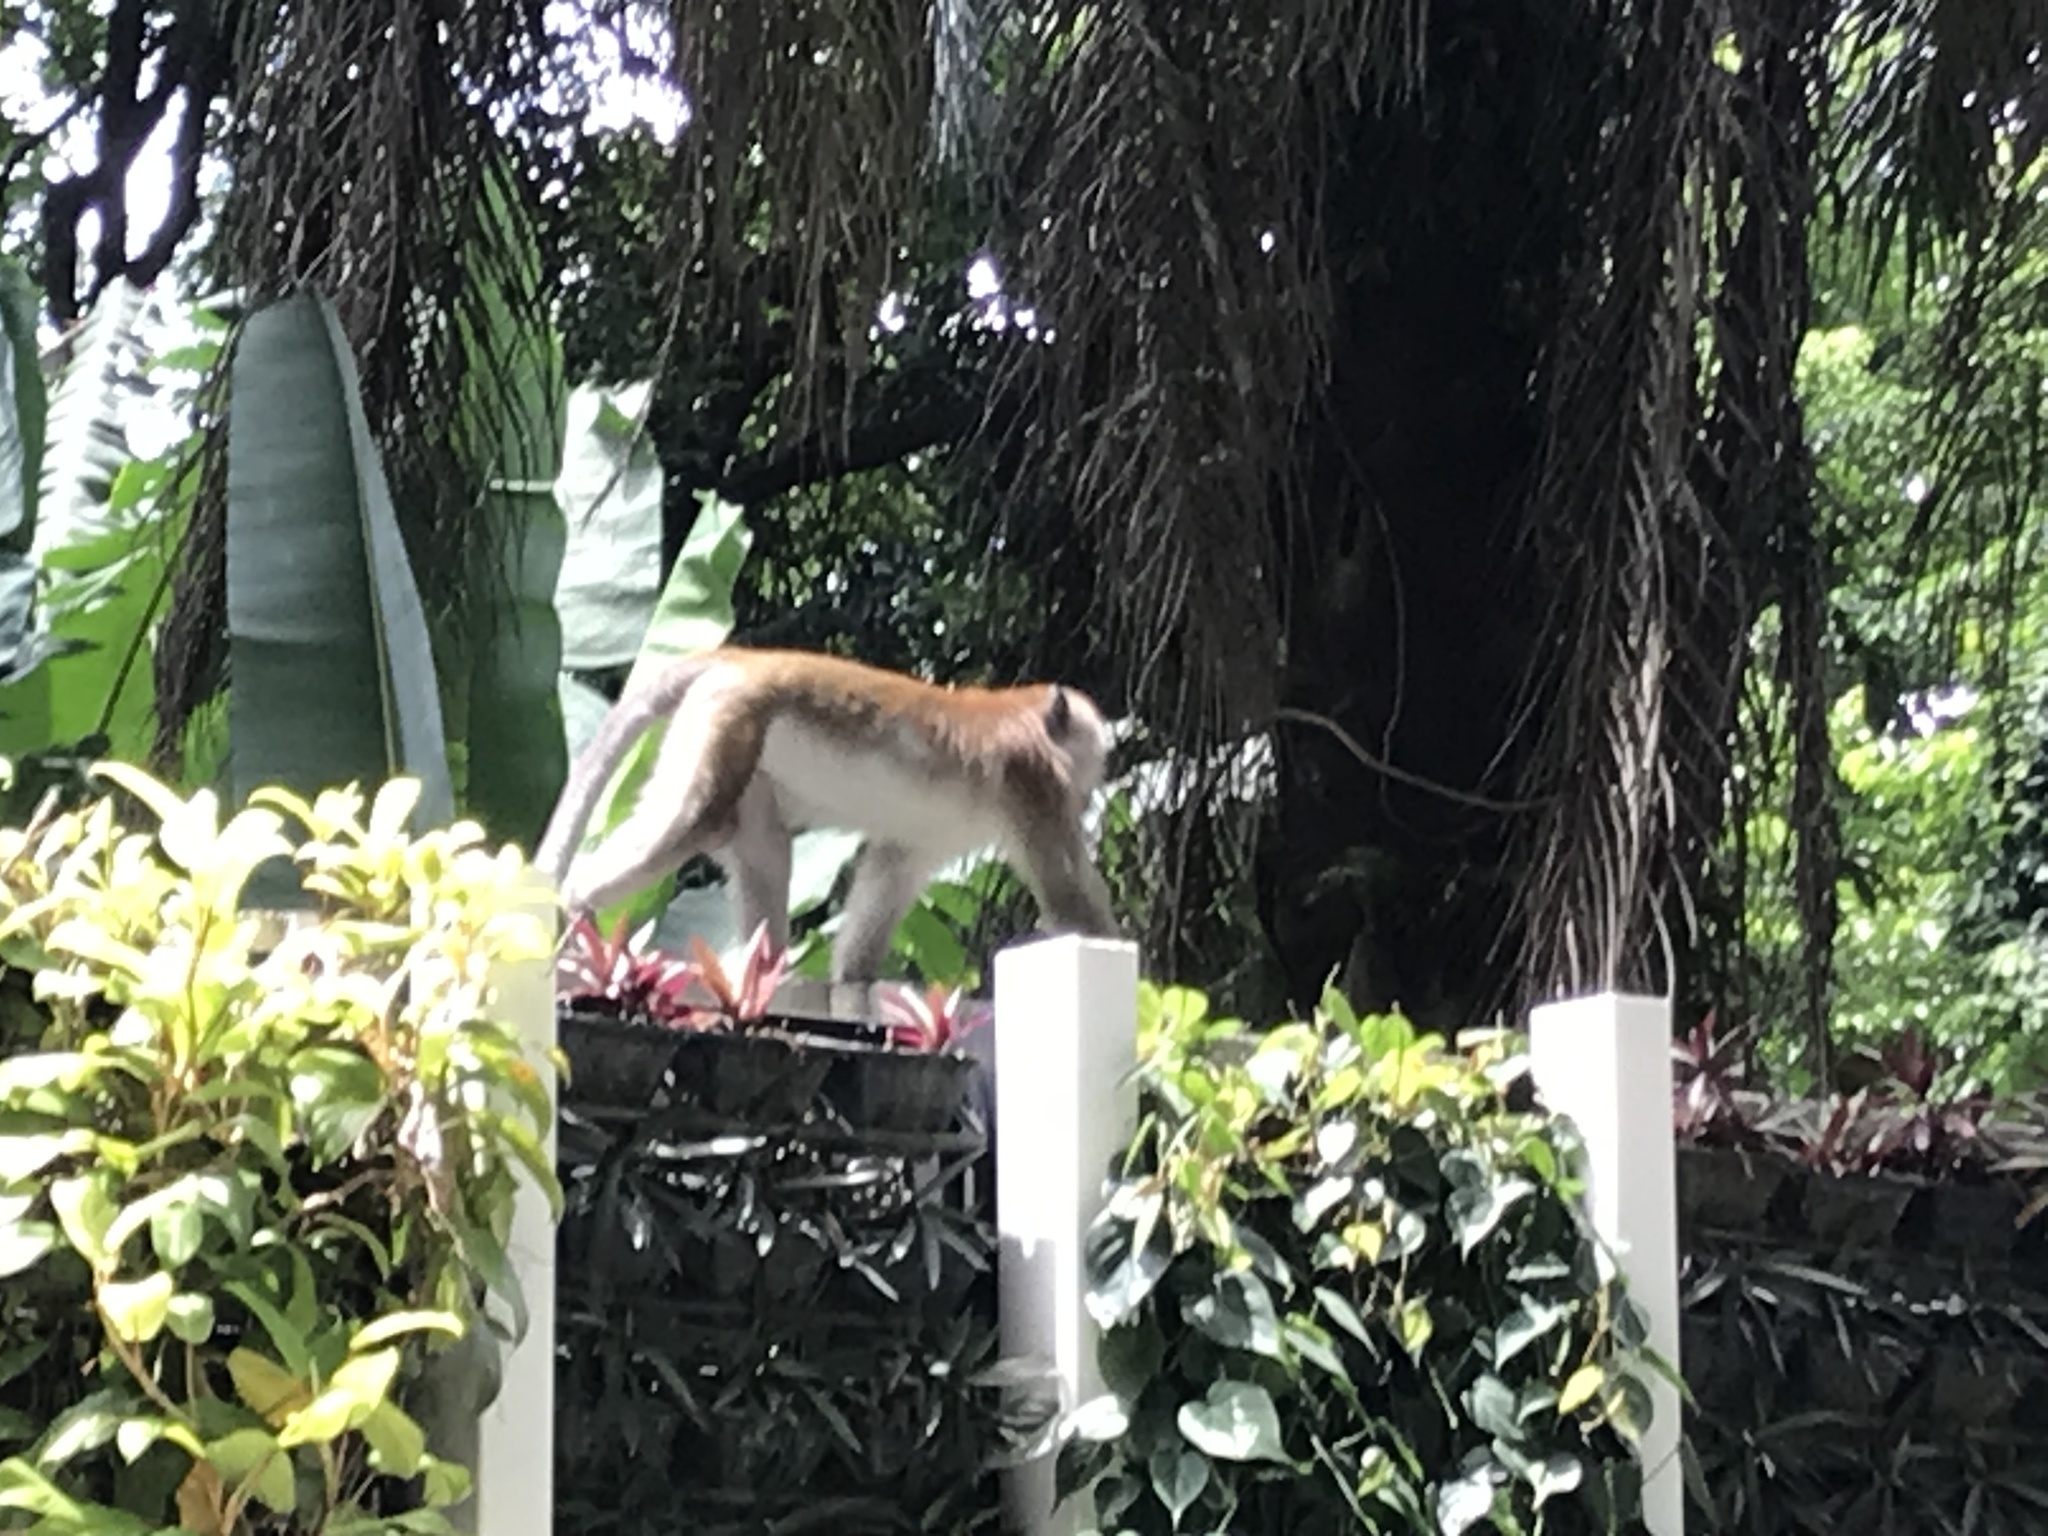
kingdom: Animalia
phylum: Chordata
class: Mammalia
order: Primates
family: Cercopithecidae
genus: Macaca
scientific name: Macaca fascicularis
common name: Crab-eating macaque
